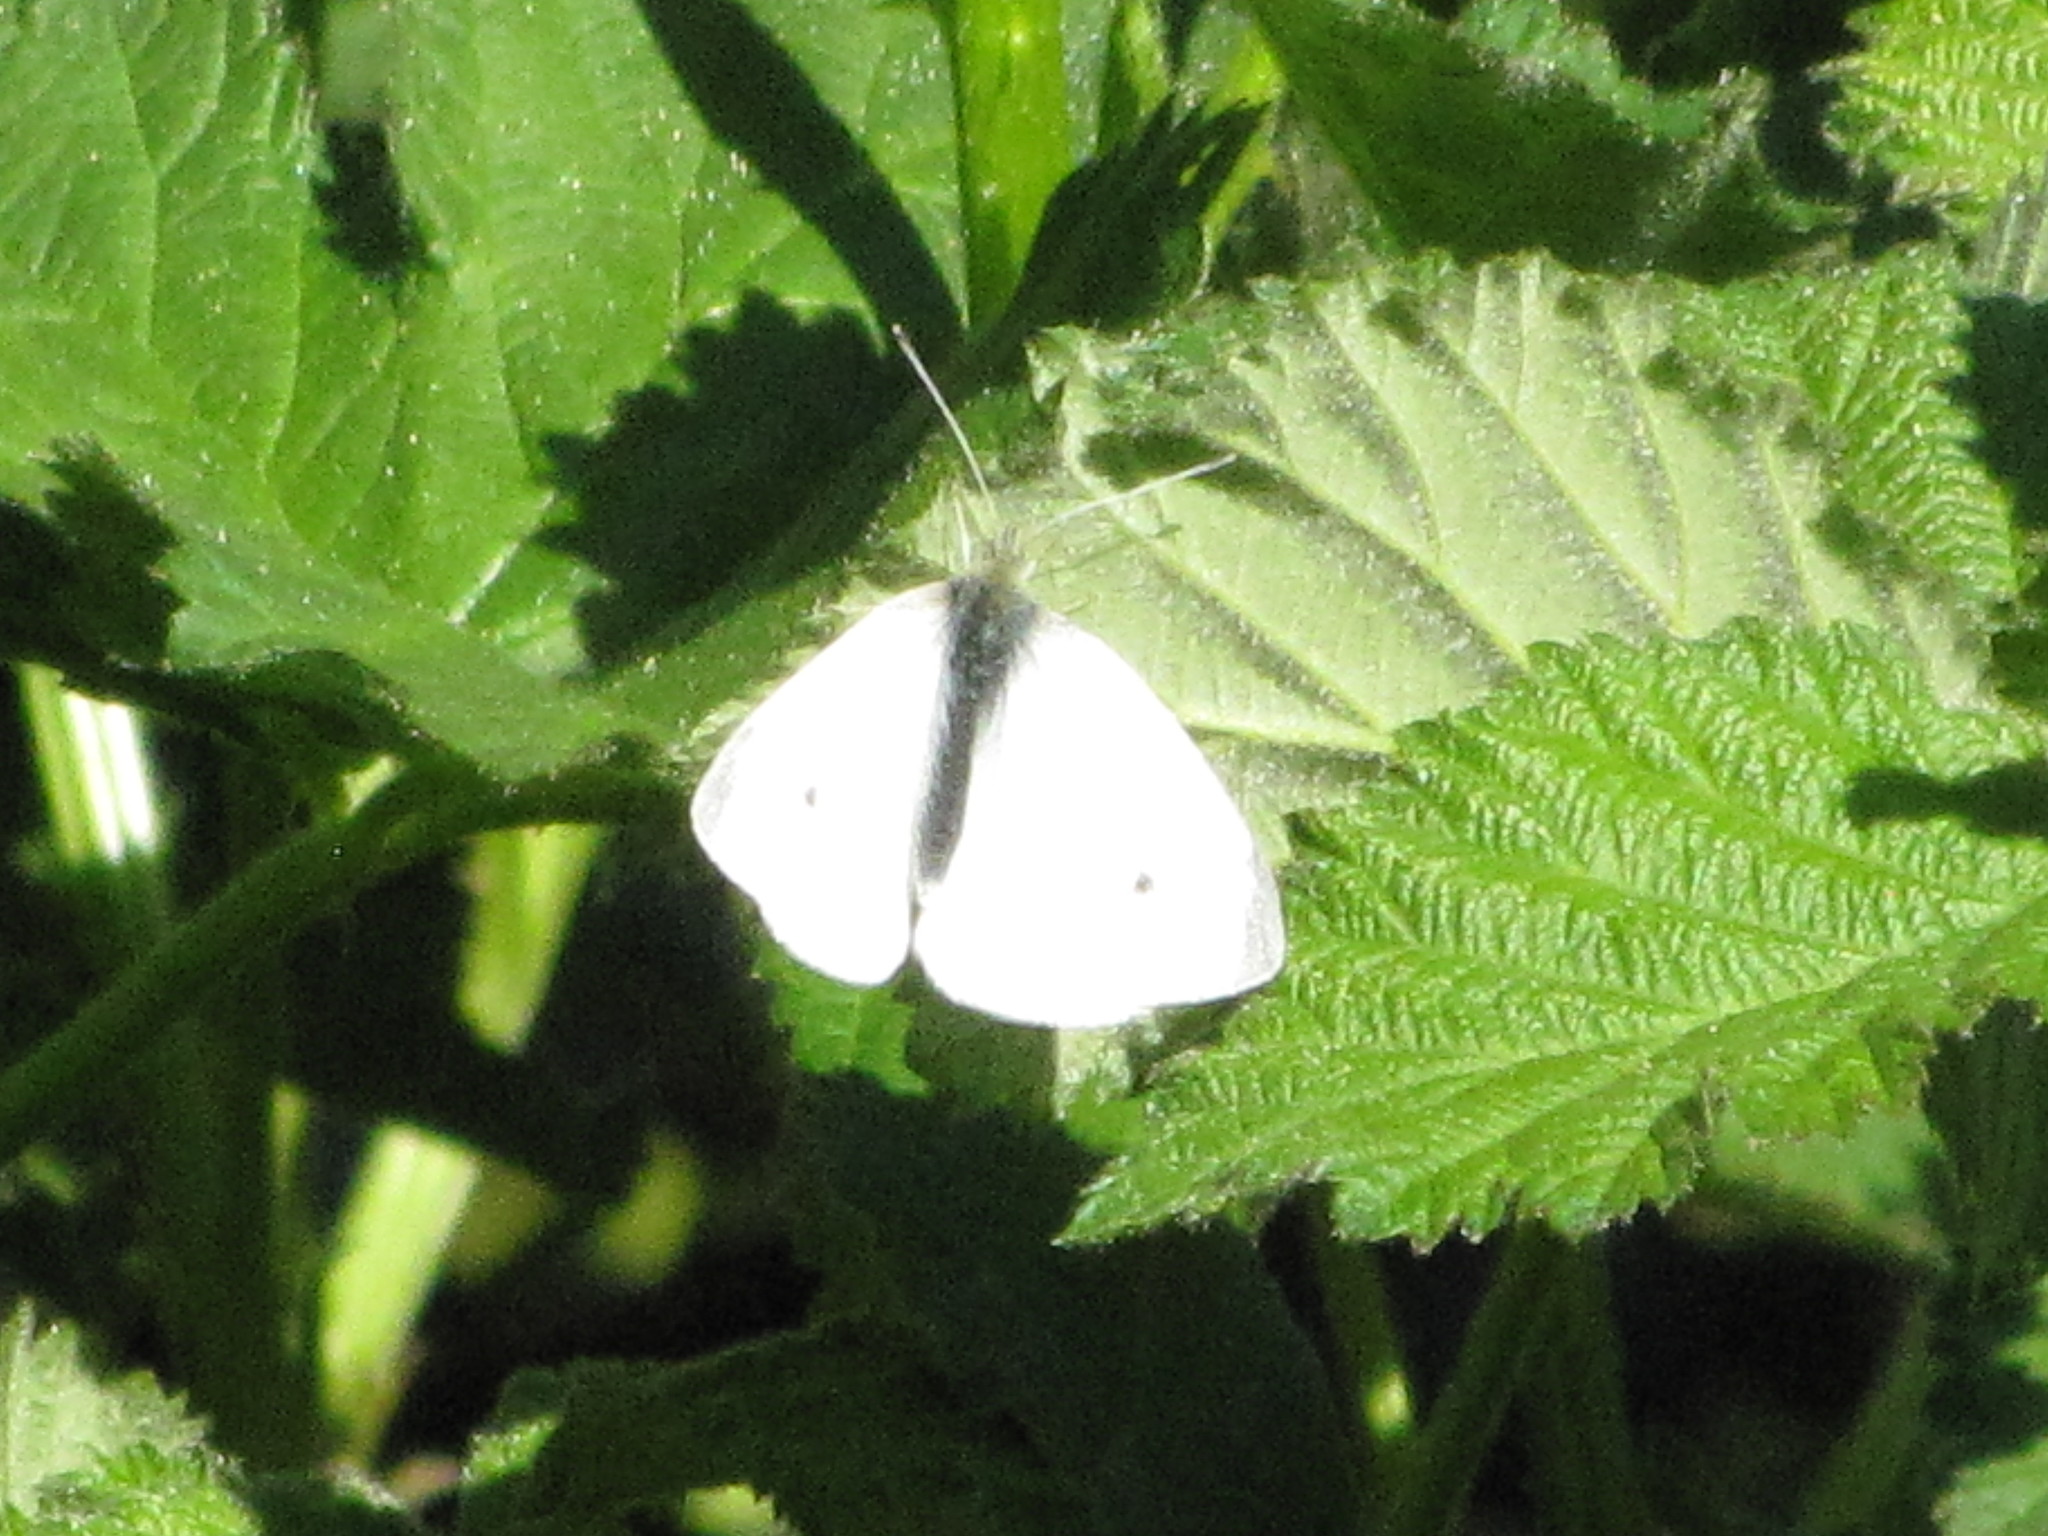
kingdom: Animalia
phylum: Arthropoda
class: Insecta
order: Lepidoptera
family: Pieridae
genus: Pieris
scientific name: Pieris rapae
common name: Small white
